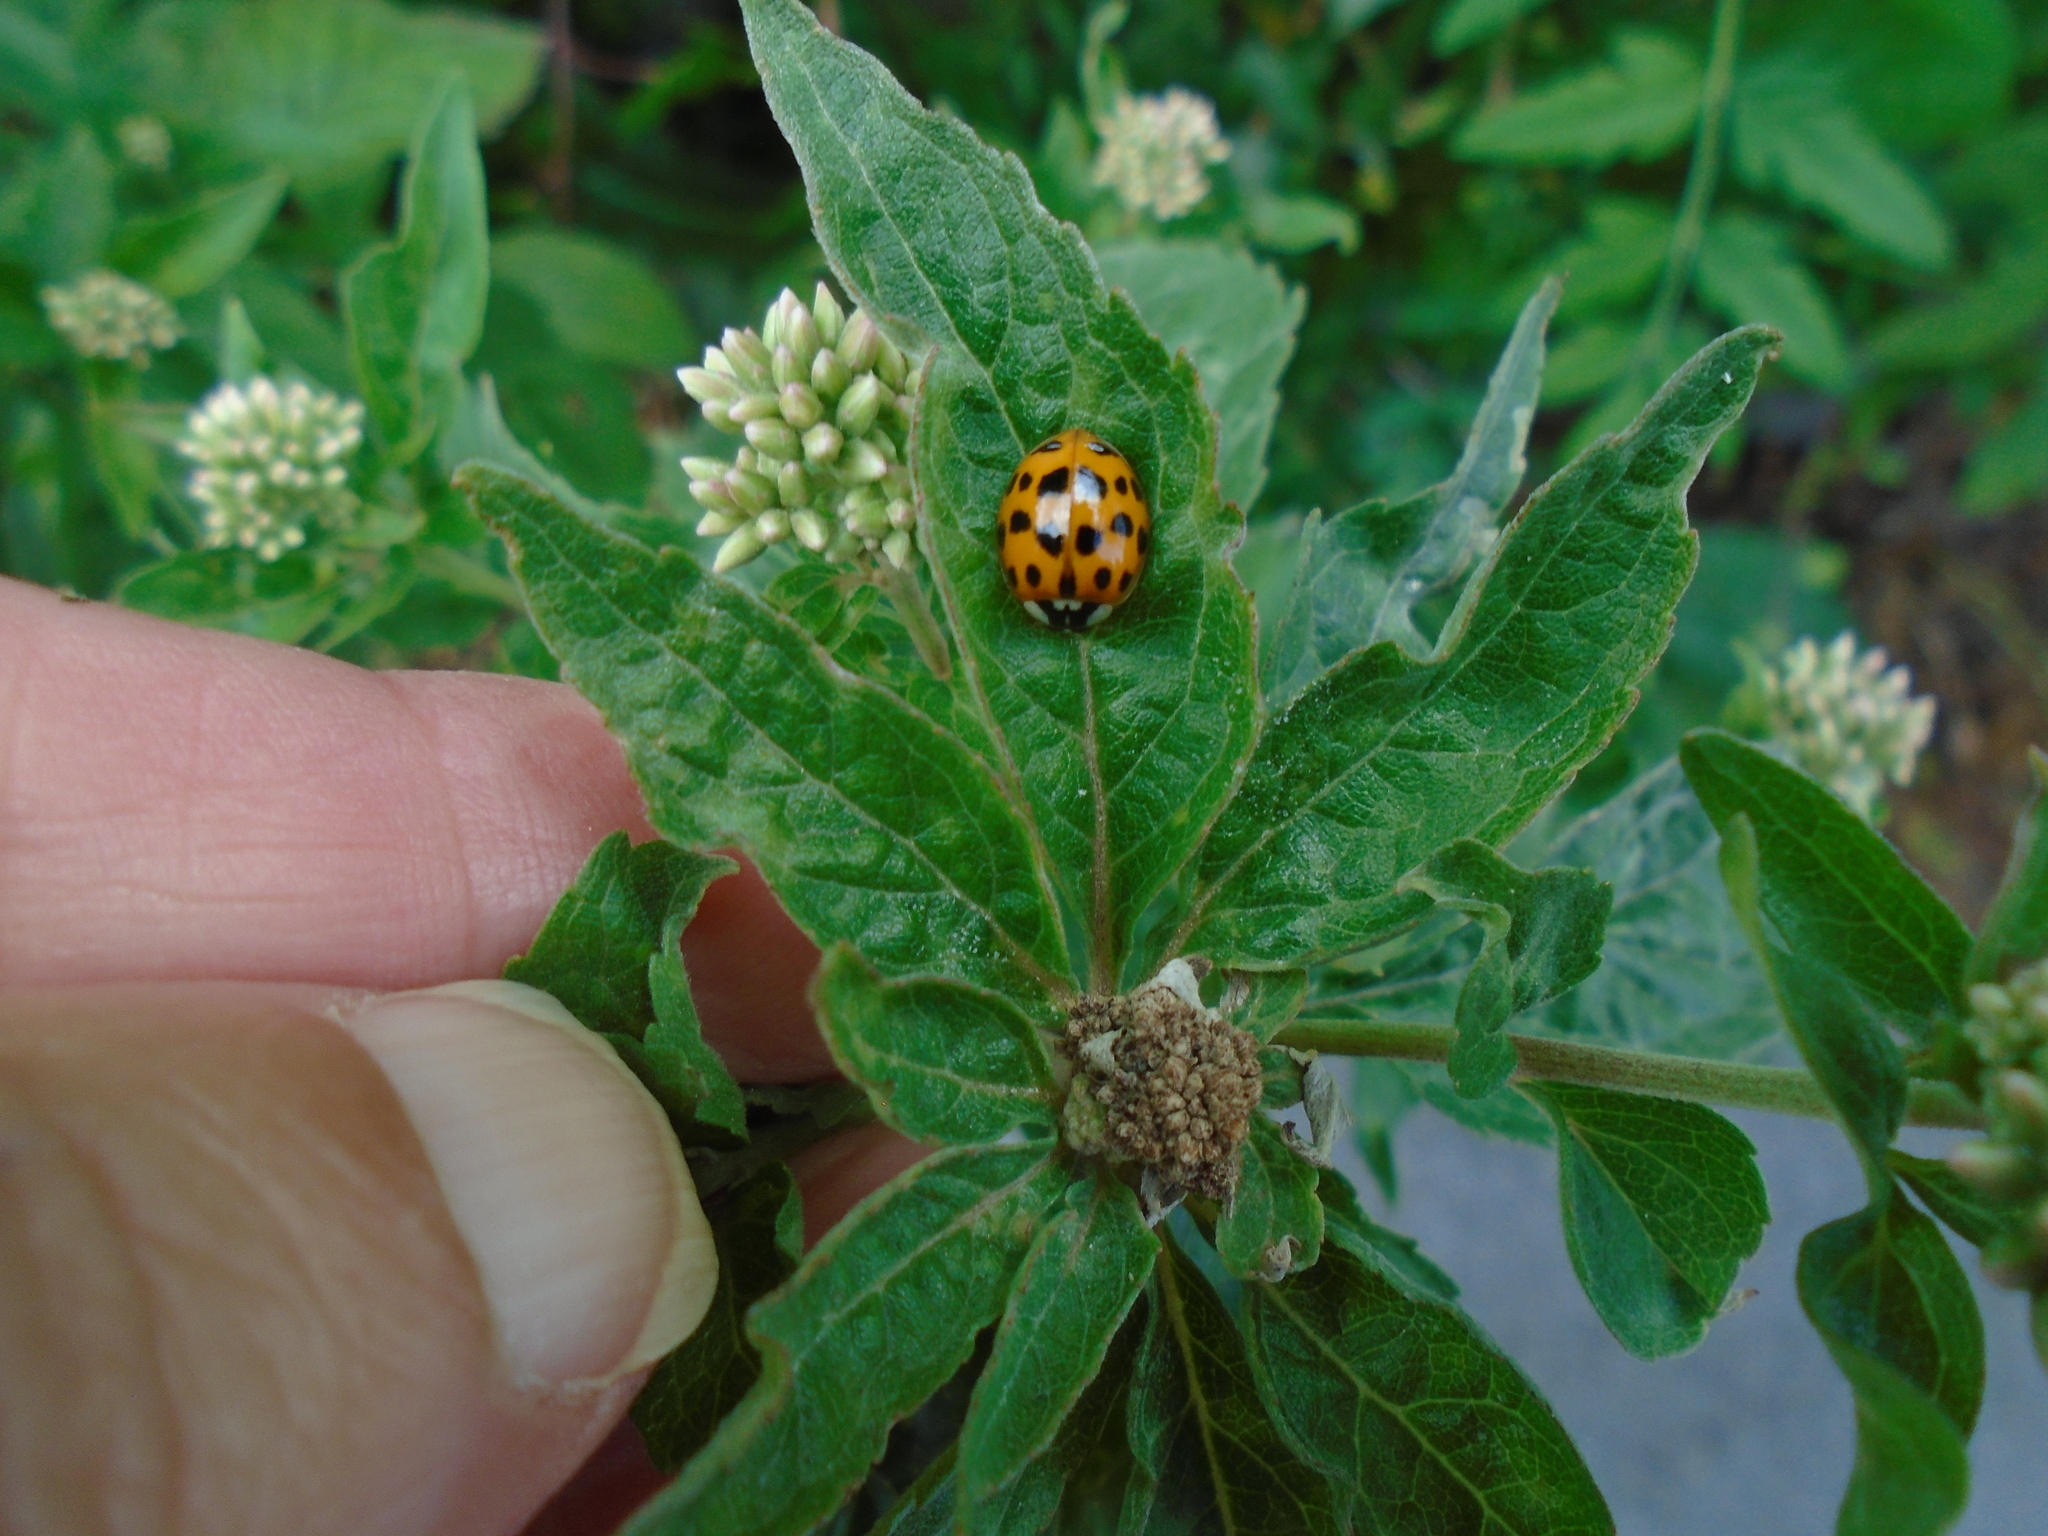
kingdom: Animalia
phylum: Arthropoda
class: Insecta
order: Coleoptera
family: Coccinellidae
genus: Harmonia
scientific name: Harmonia axyridis
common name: Harlequin ladybird
